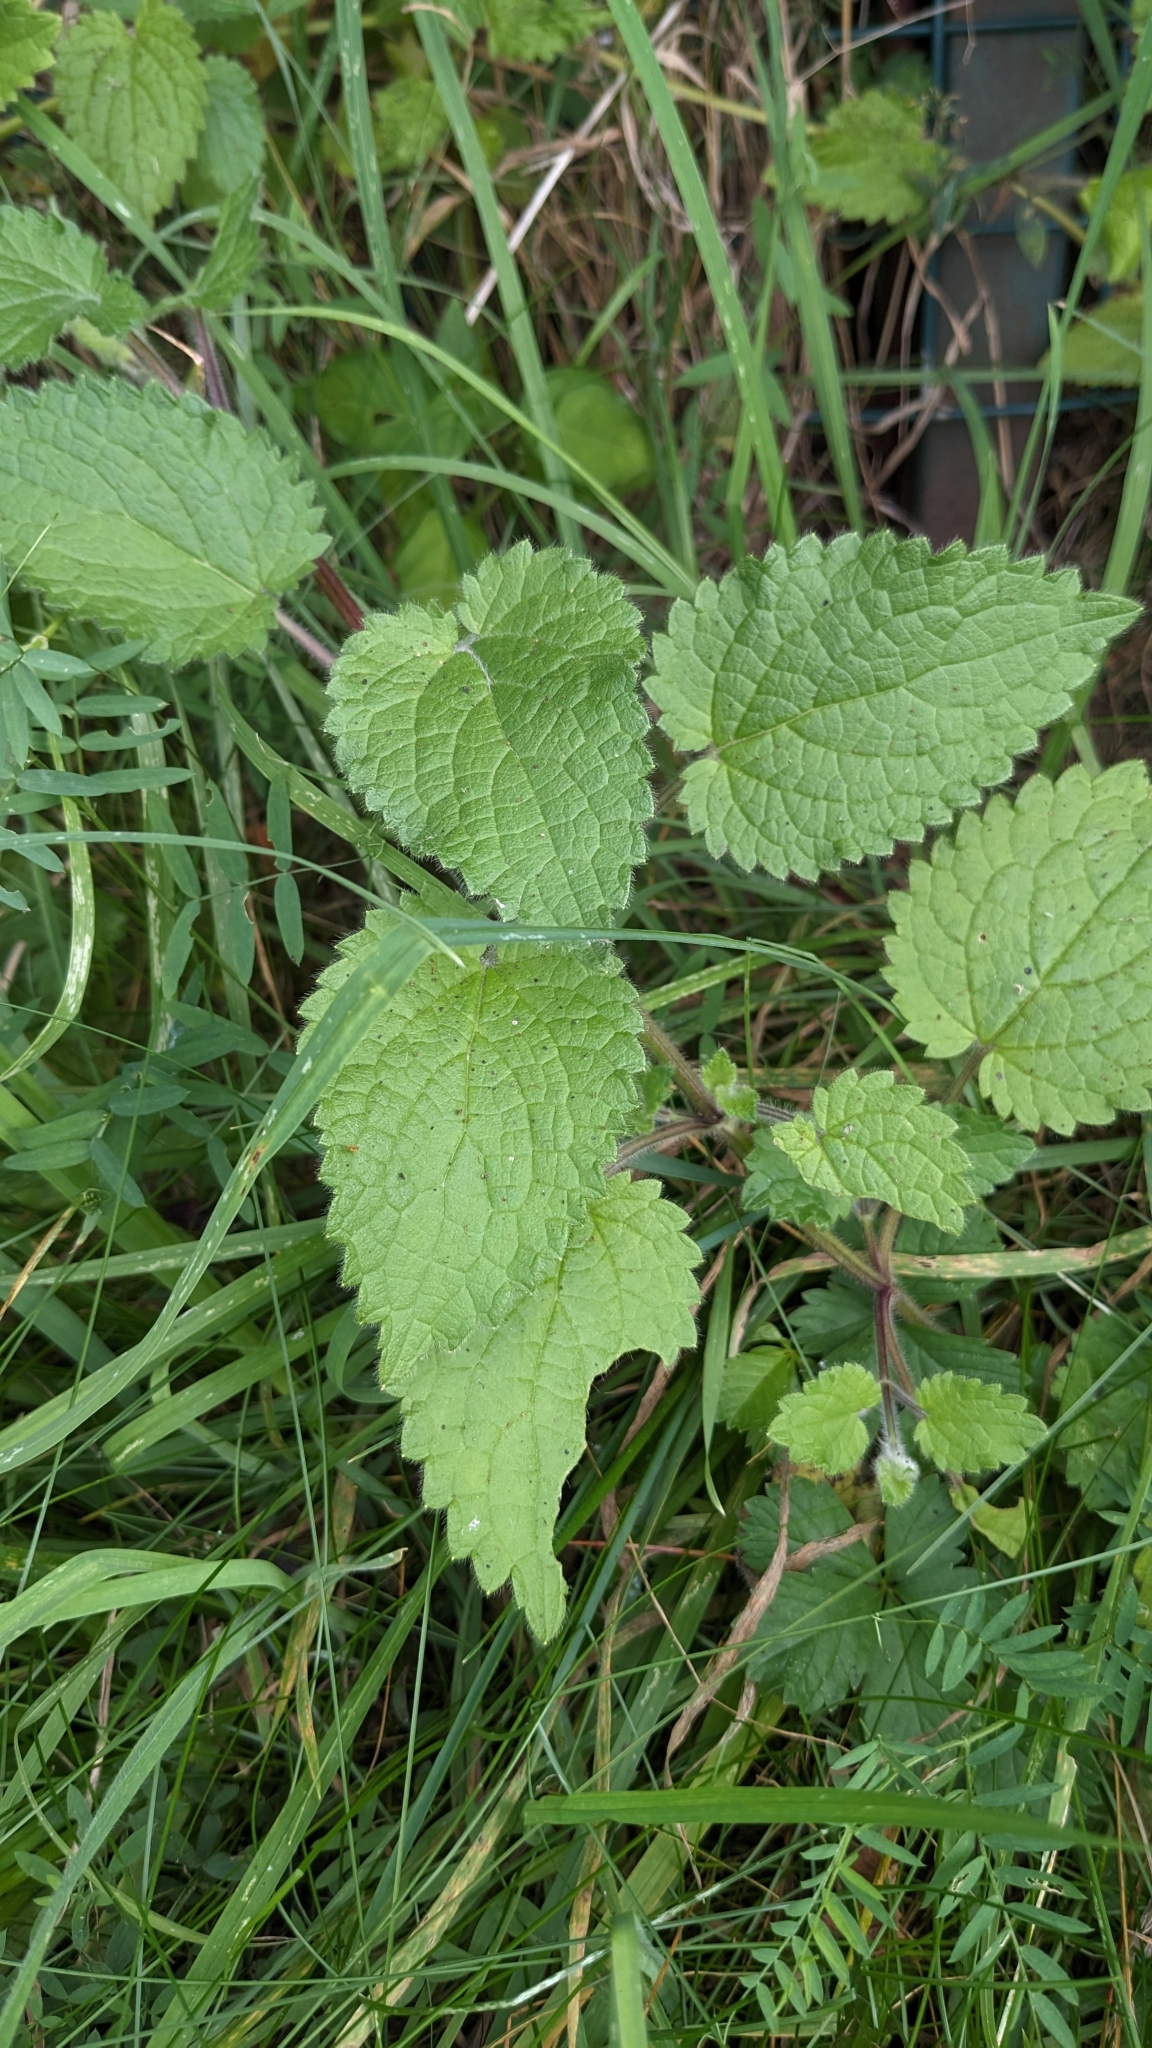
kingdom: Plantae
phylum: Tracheophyta
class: Magnoliopsida
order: Lamiales
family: Lamiaceae
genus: Stachys
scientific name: Stachys sylvatica
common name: Hedge woundwort
